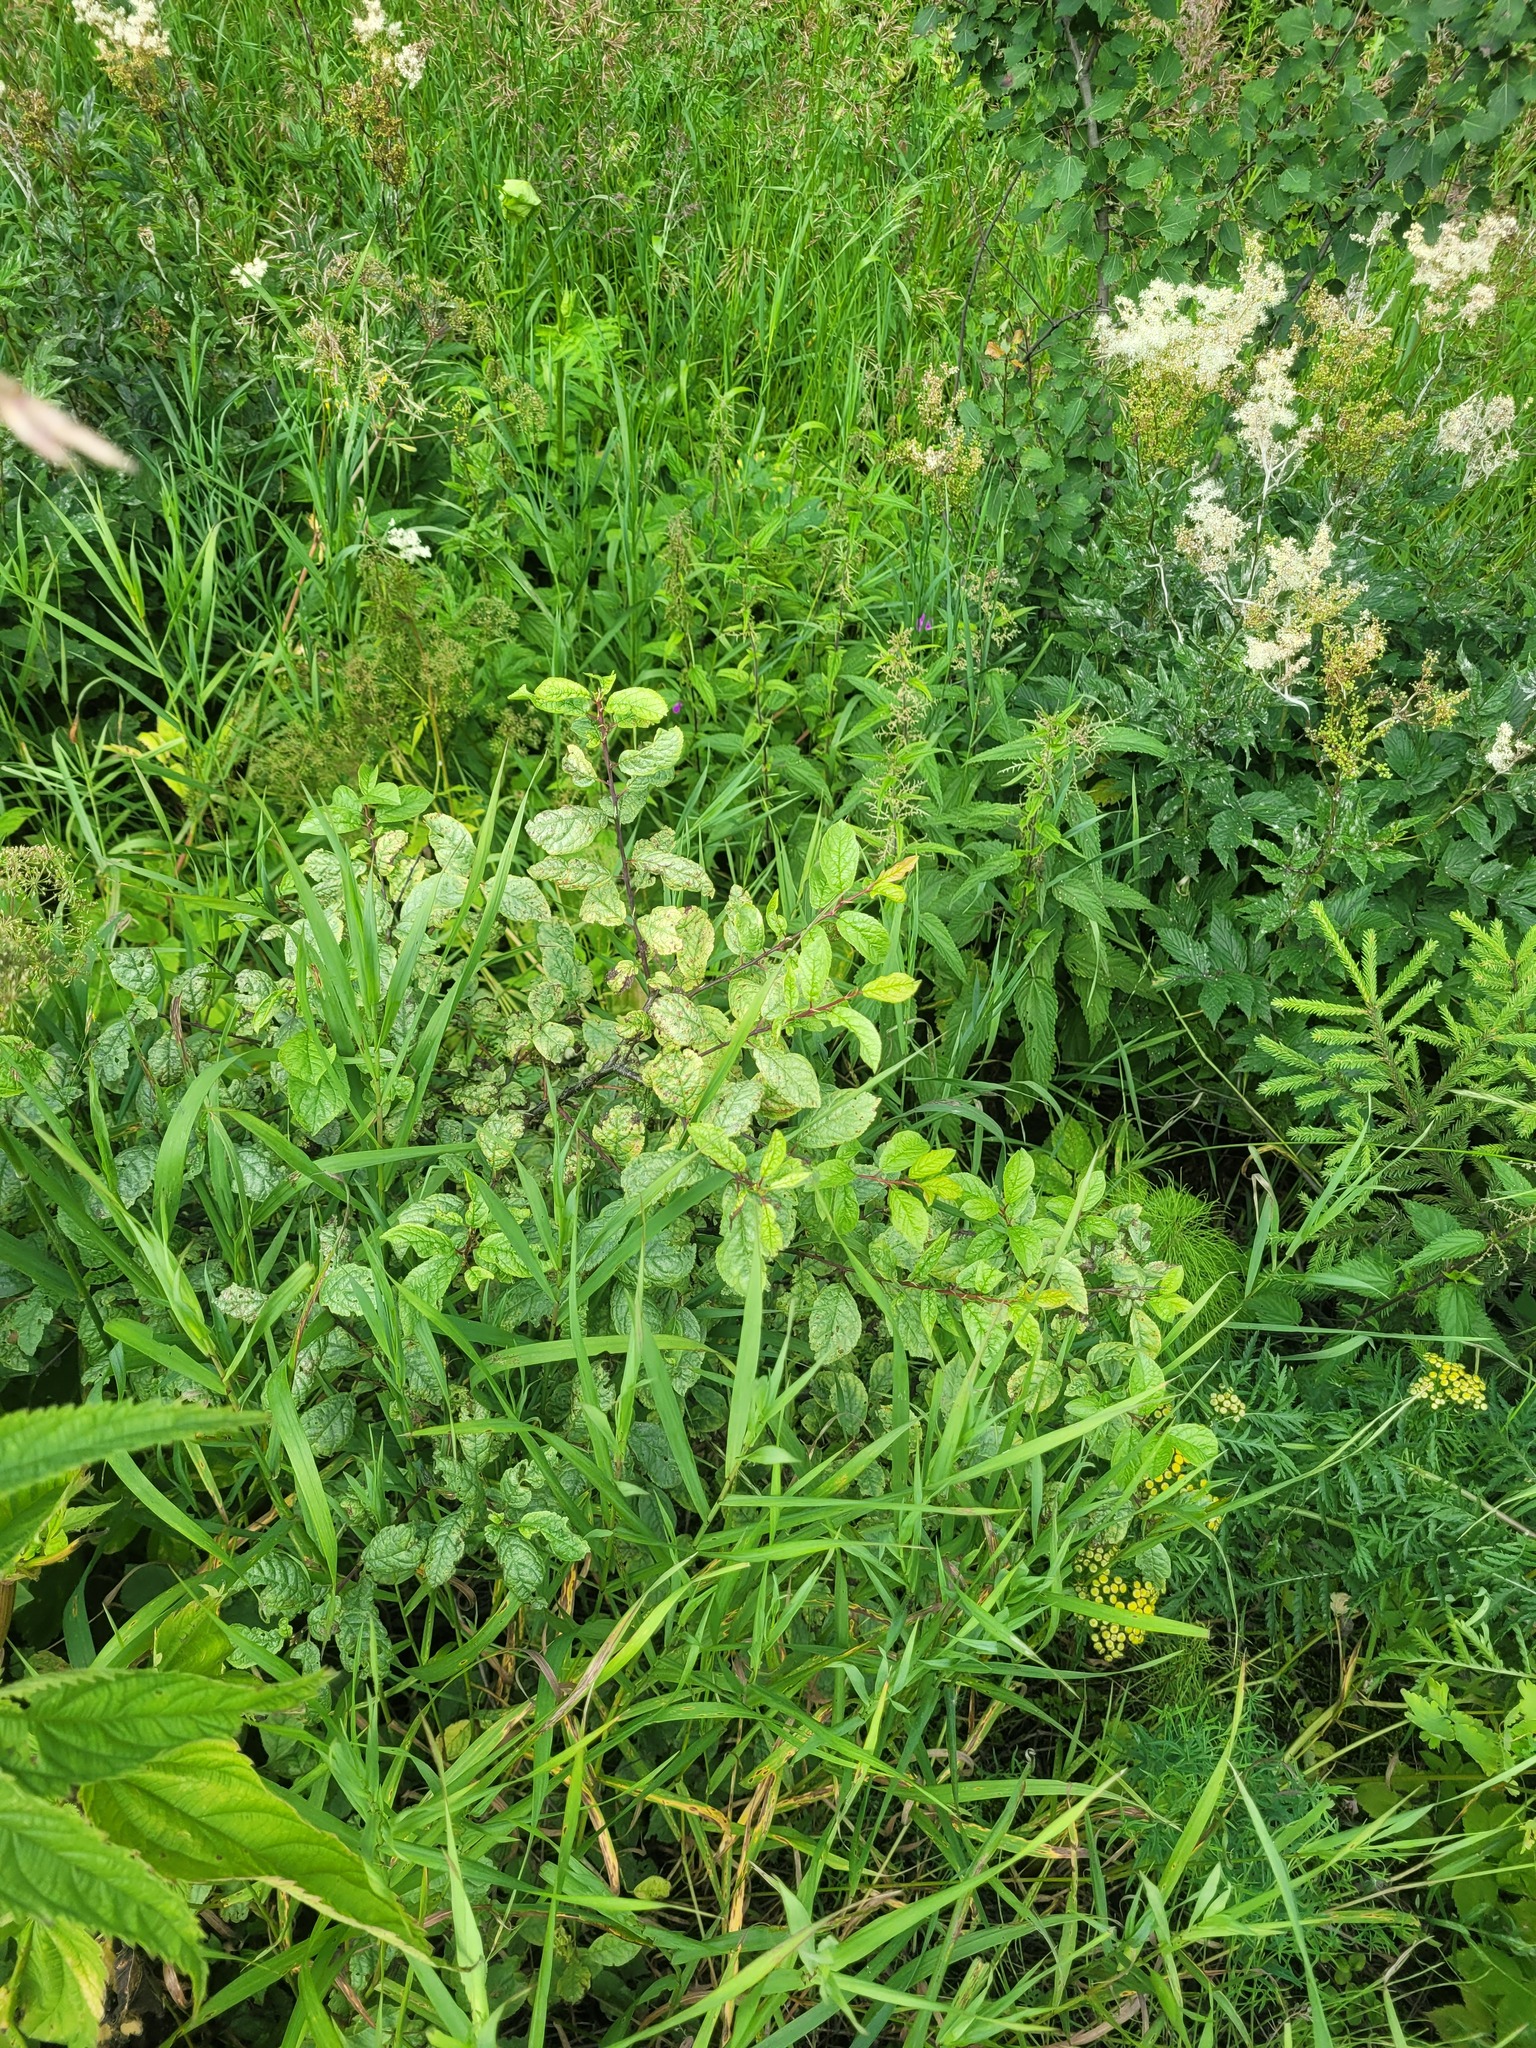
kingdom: Plantae
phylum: Tracheophyta
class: Magnoliopsida
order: Rosales
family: Rosaceae
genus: Prunus
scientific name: Prunus domestica
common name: Wild plum
